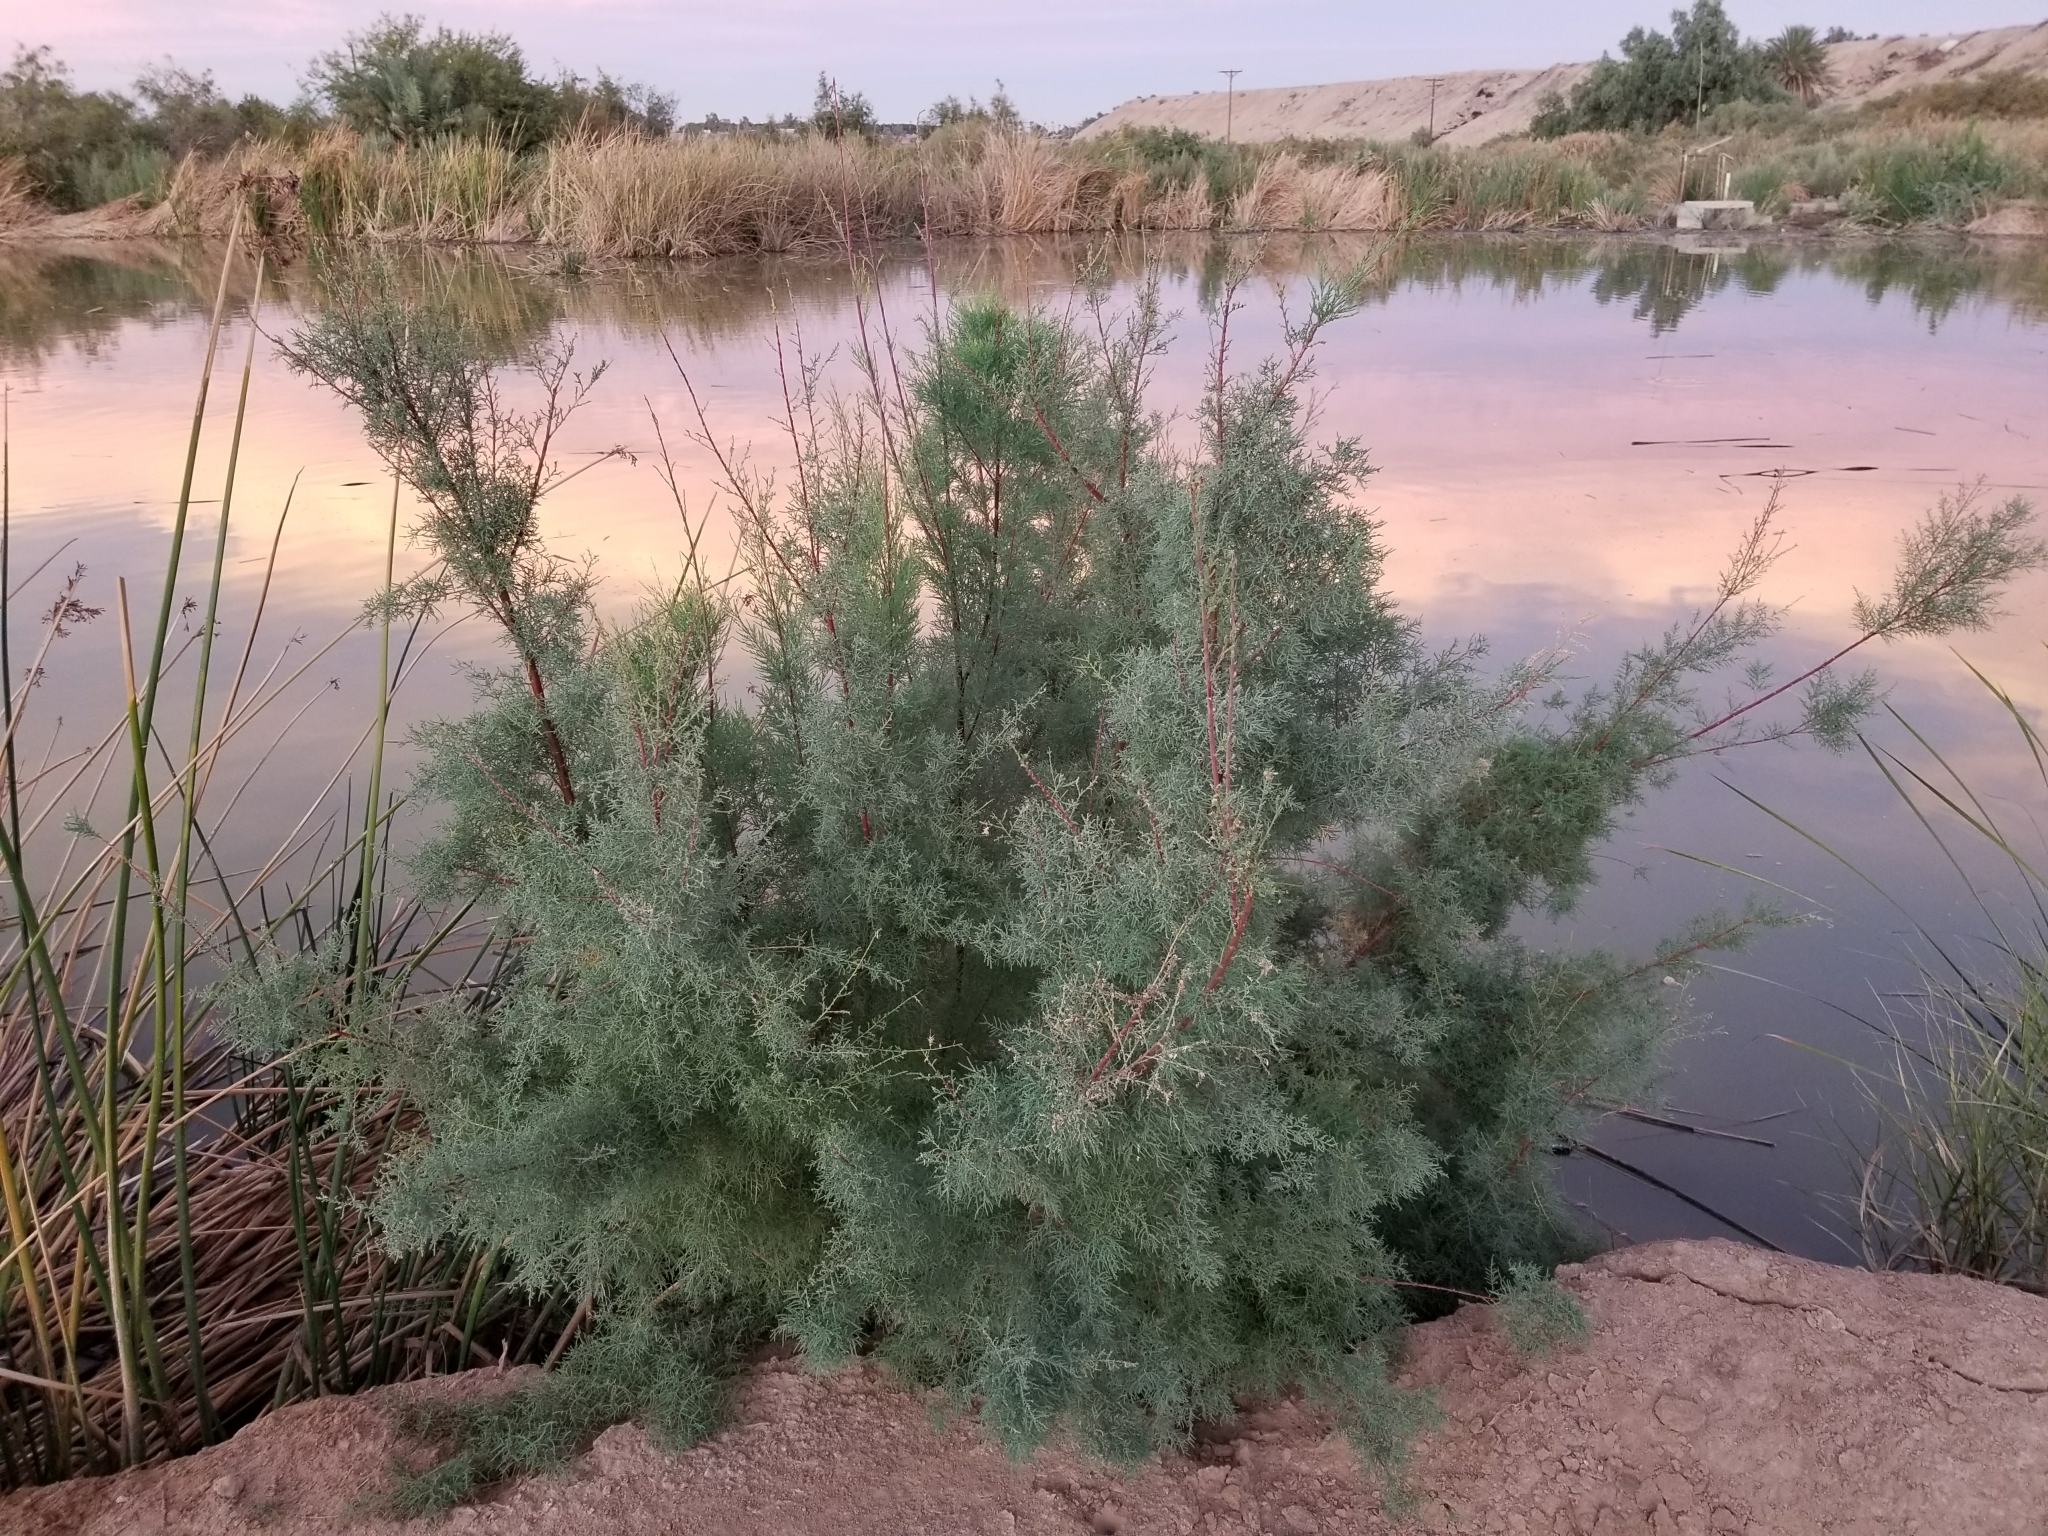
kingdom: Plantae
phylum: Tracheophyta
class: Magnoliopsida
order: Caryophyllales
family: Tamaricaceae
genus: Tamarix
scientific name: Tamarix ramosissima
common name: Pink tamarisk
